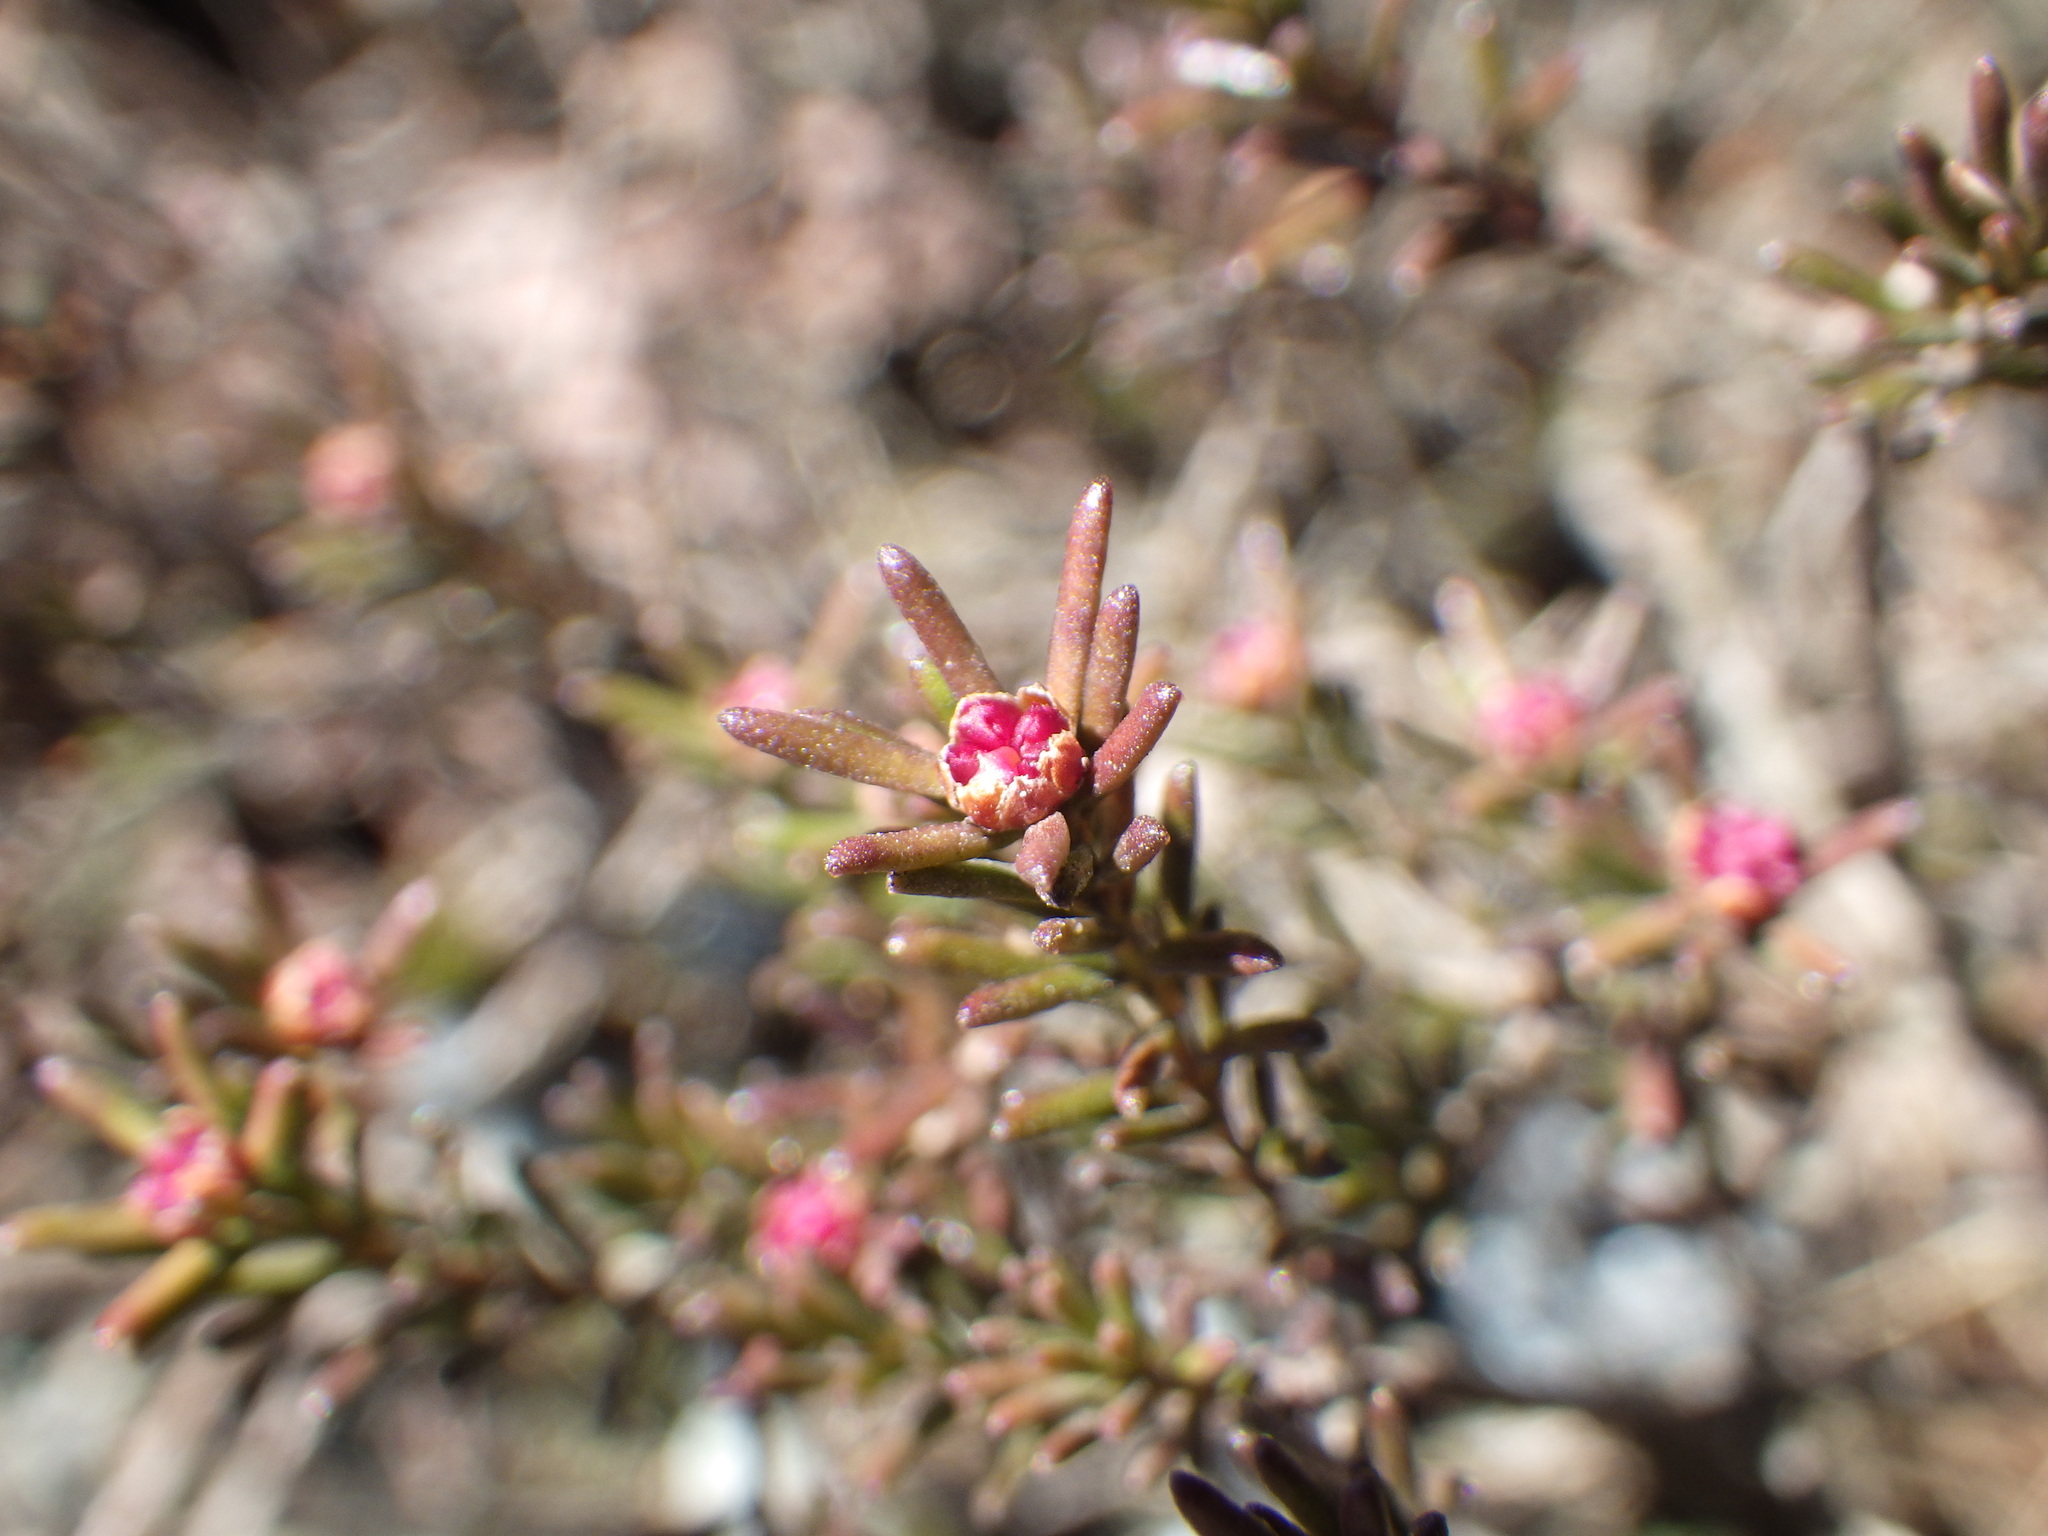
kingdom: Plantae
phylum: Tracheophyta
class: Magnoliopsida
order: Ericales
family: Ericaceae
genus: Corema
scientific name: Corema conradii
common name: Broom-crowberry
